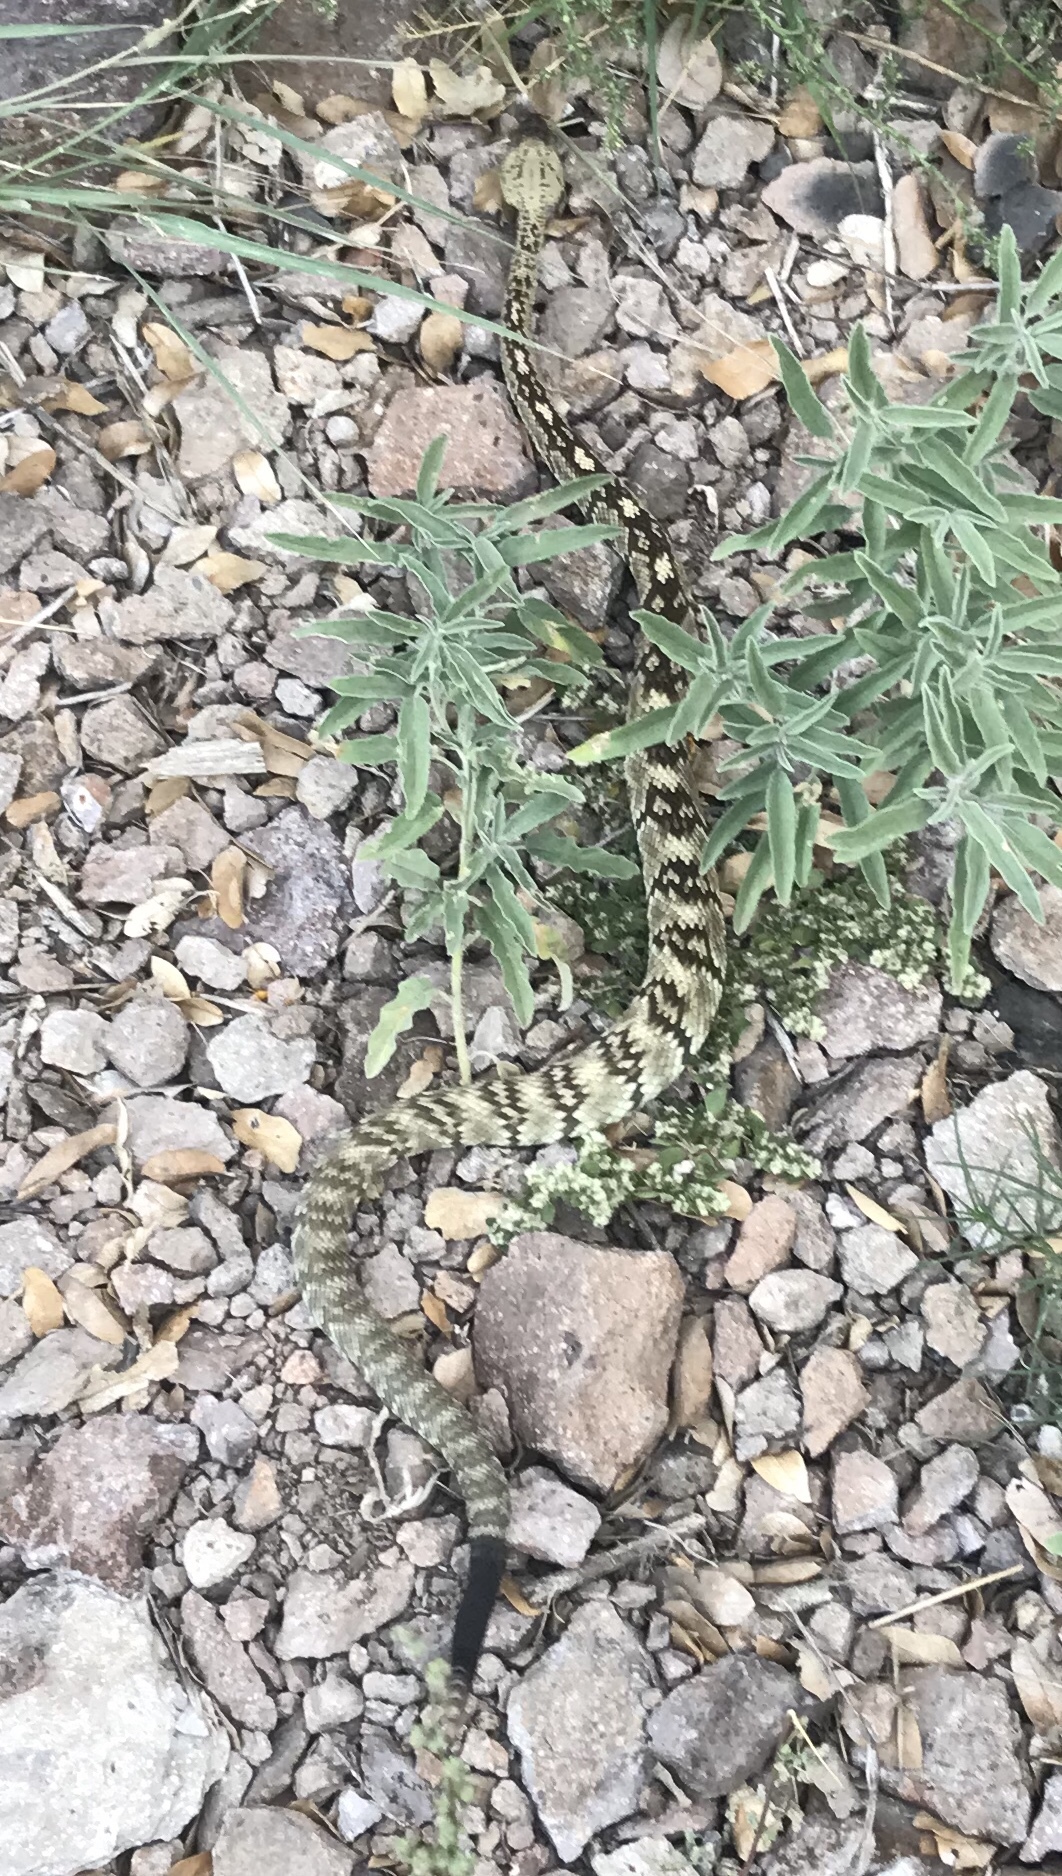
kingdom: Animalia
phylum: Chordata
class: Squamata
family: Viperidae
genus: Crotalus
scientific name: Crotalus ornatus
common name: Black-tailed rattlesnake
